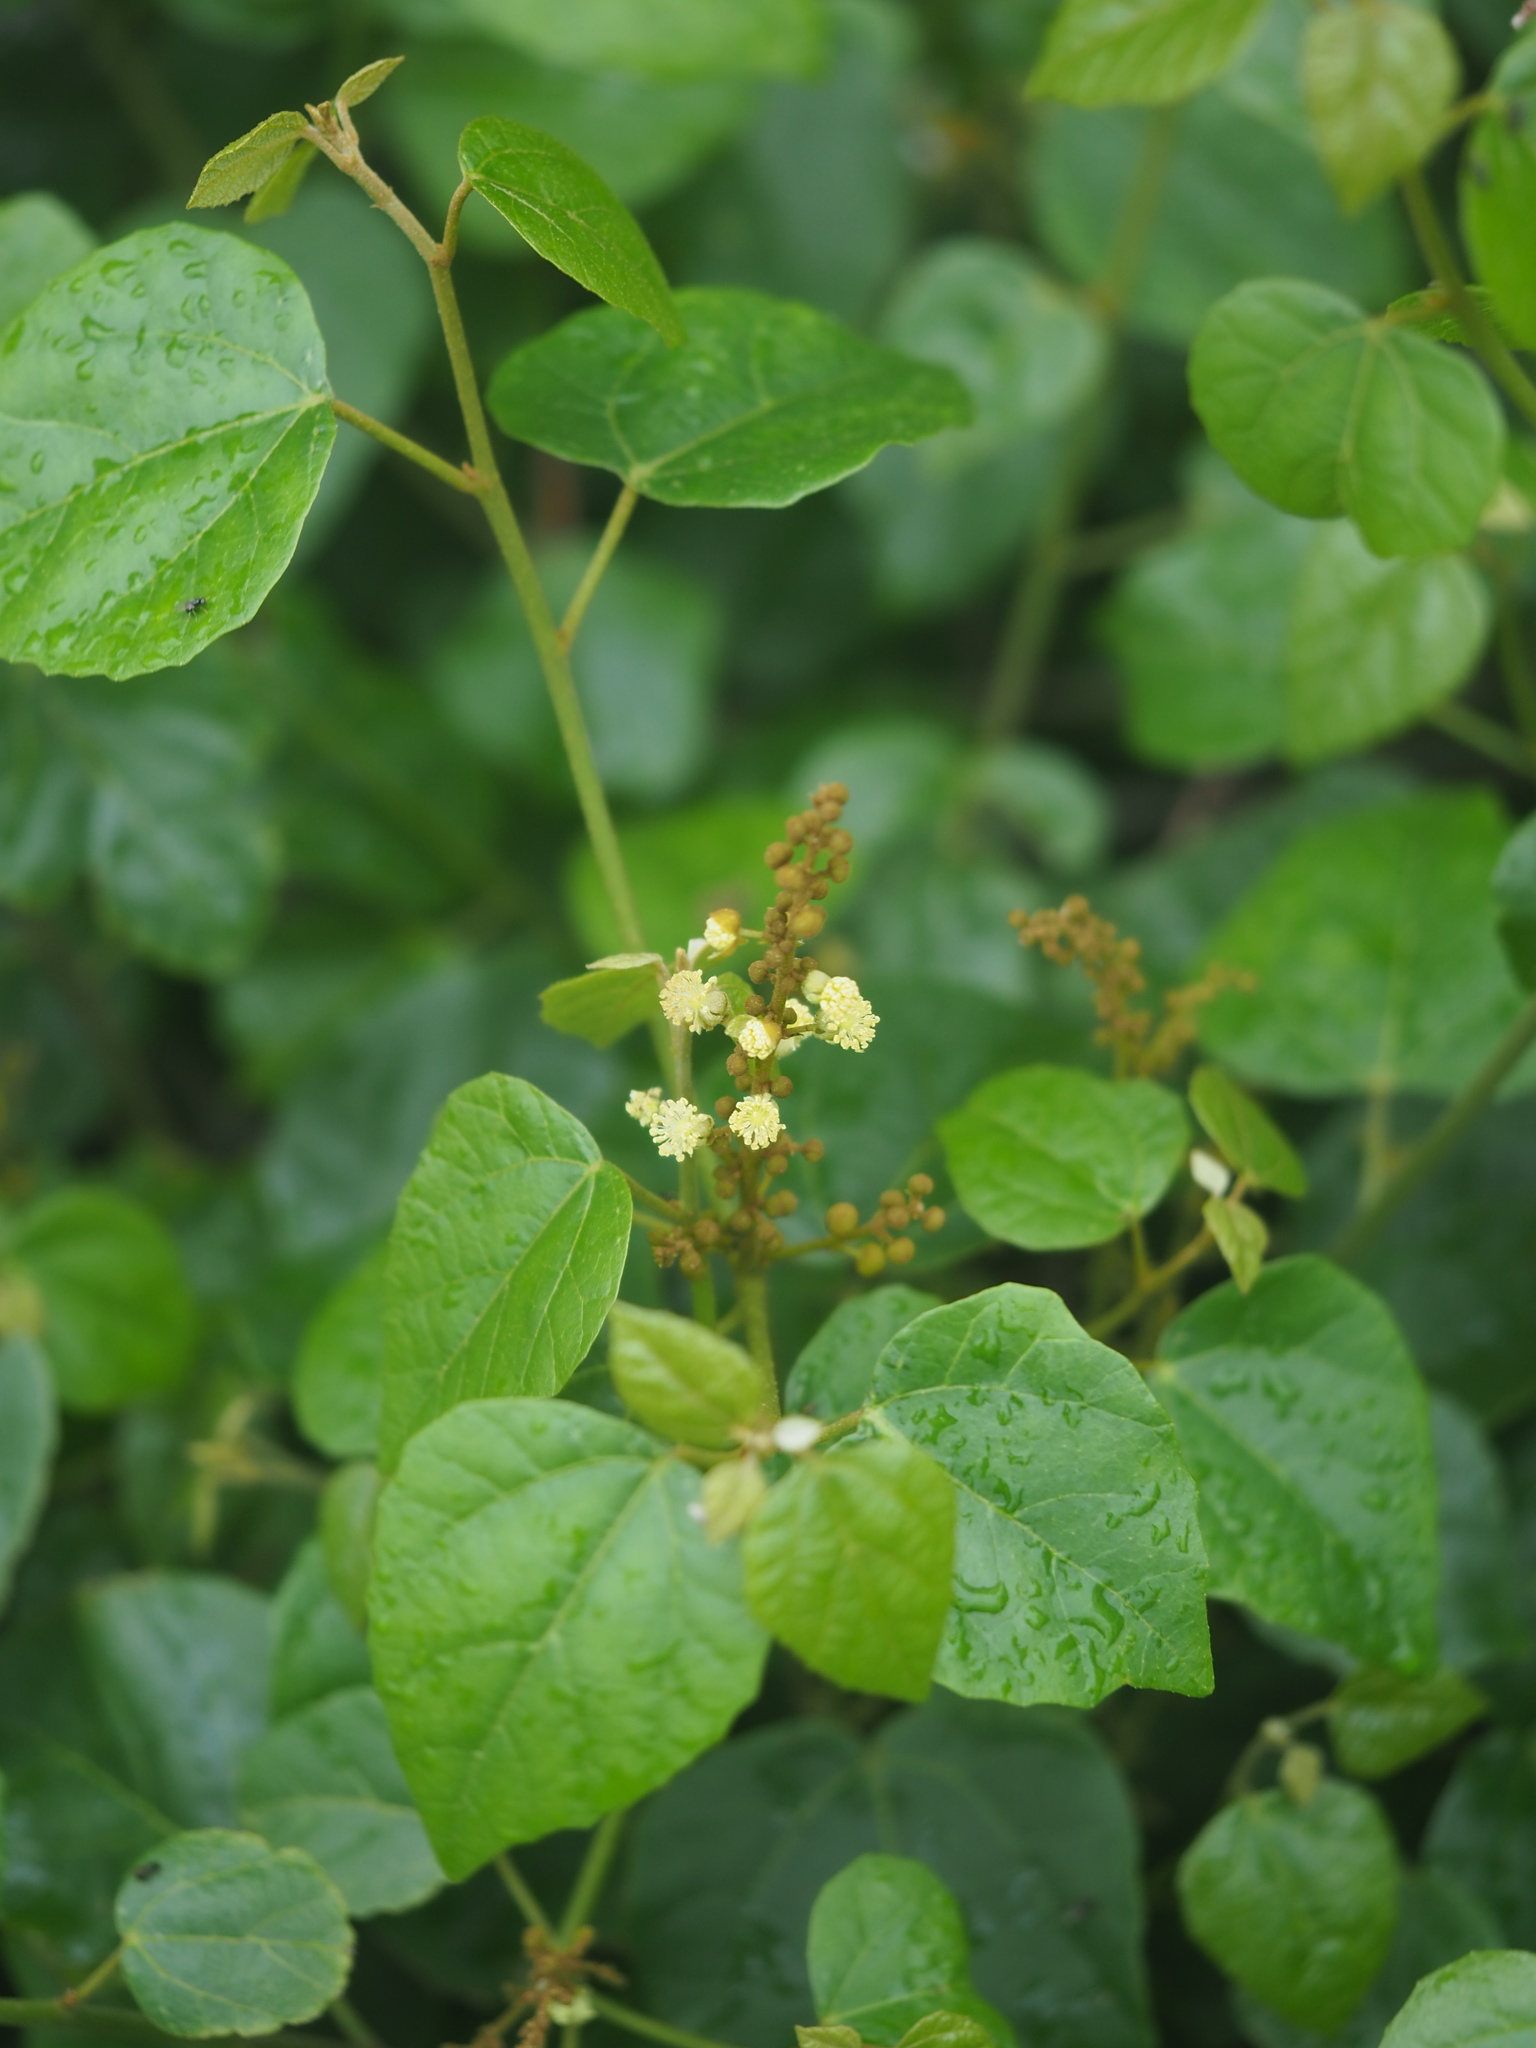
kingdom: Plantae
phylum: Tracheophyta
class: Magnoliopsida
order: Malpighiales
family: Euphorbiaceae
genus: Mallotus
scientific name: Mallotus repandus
